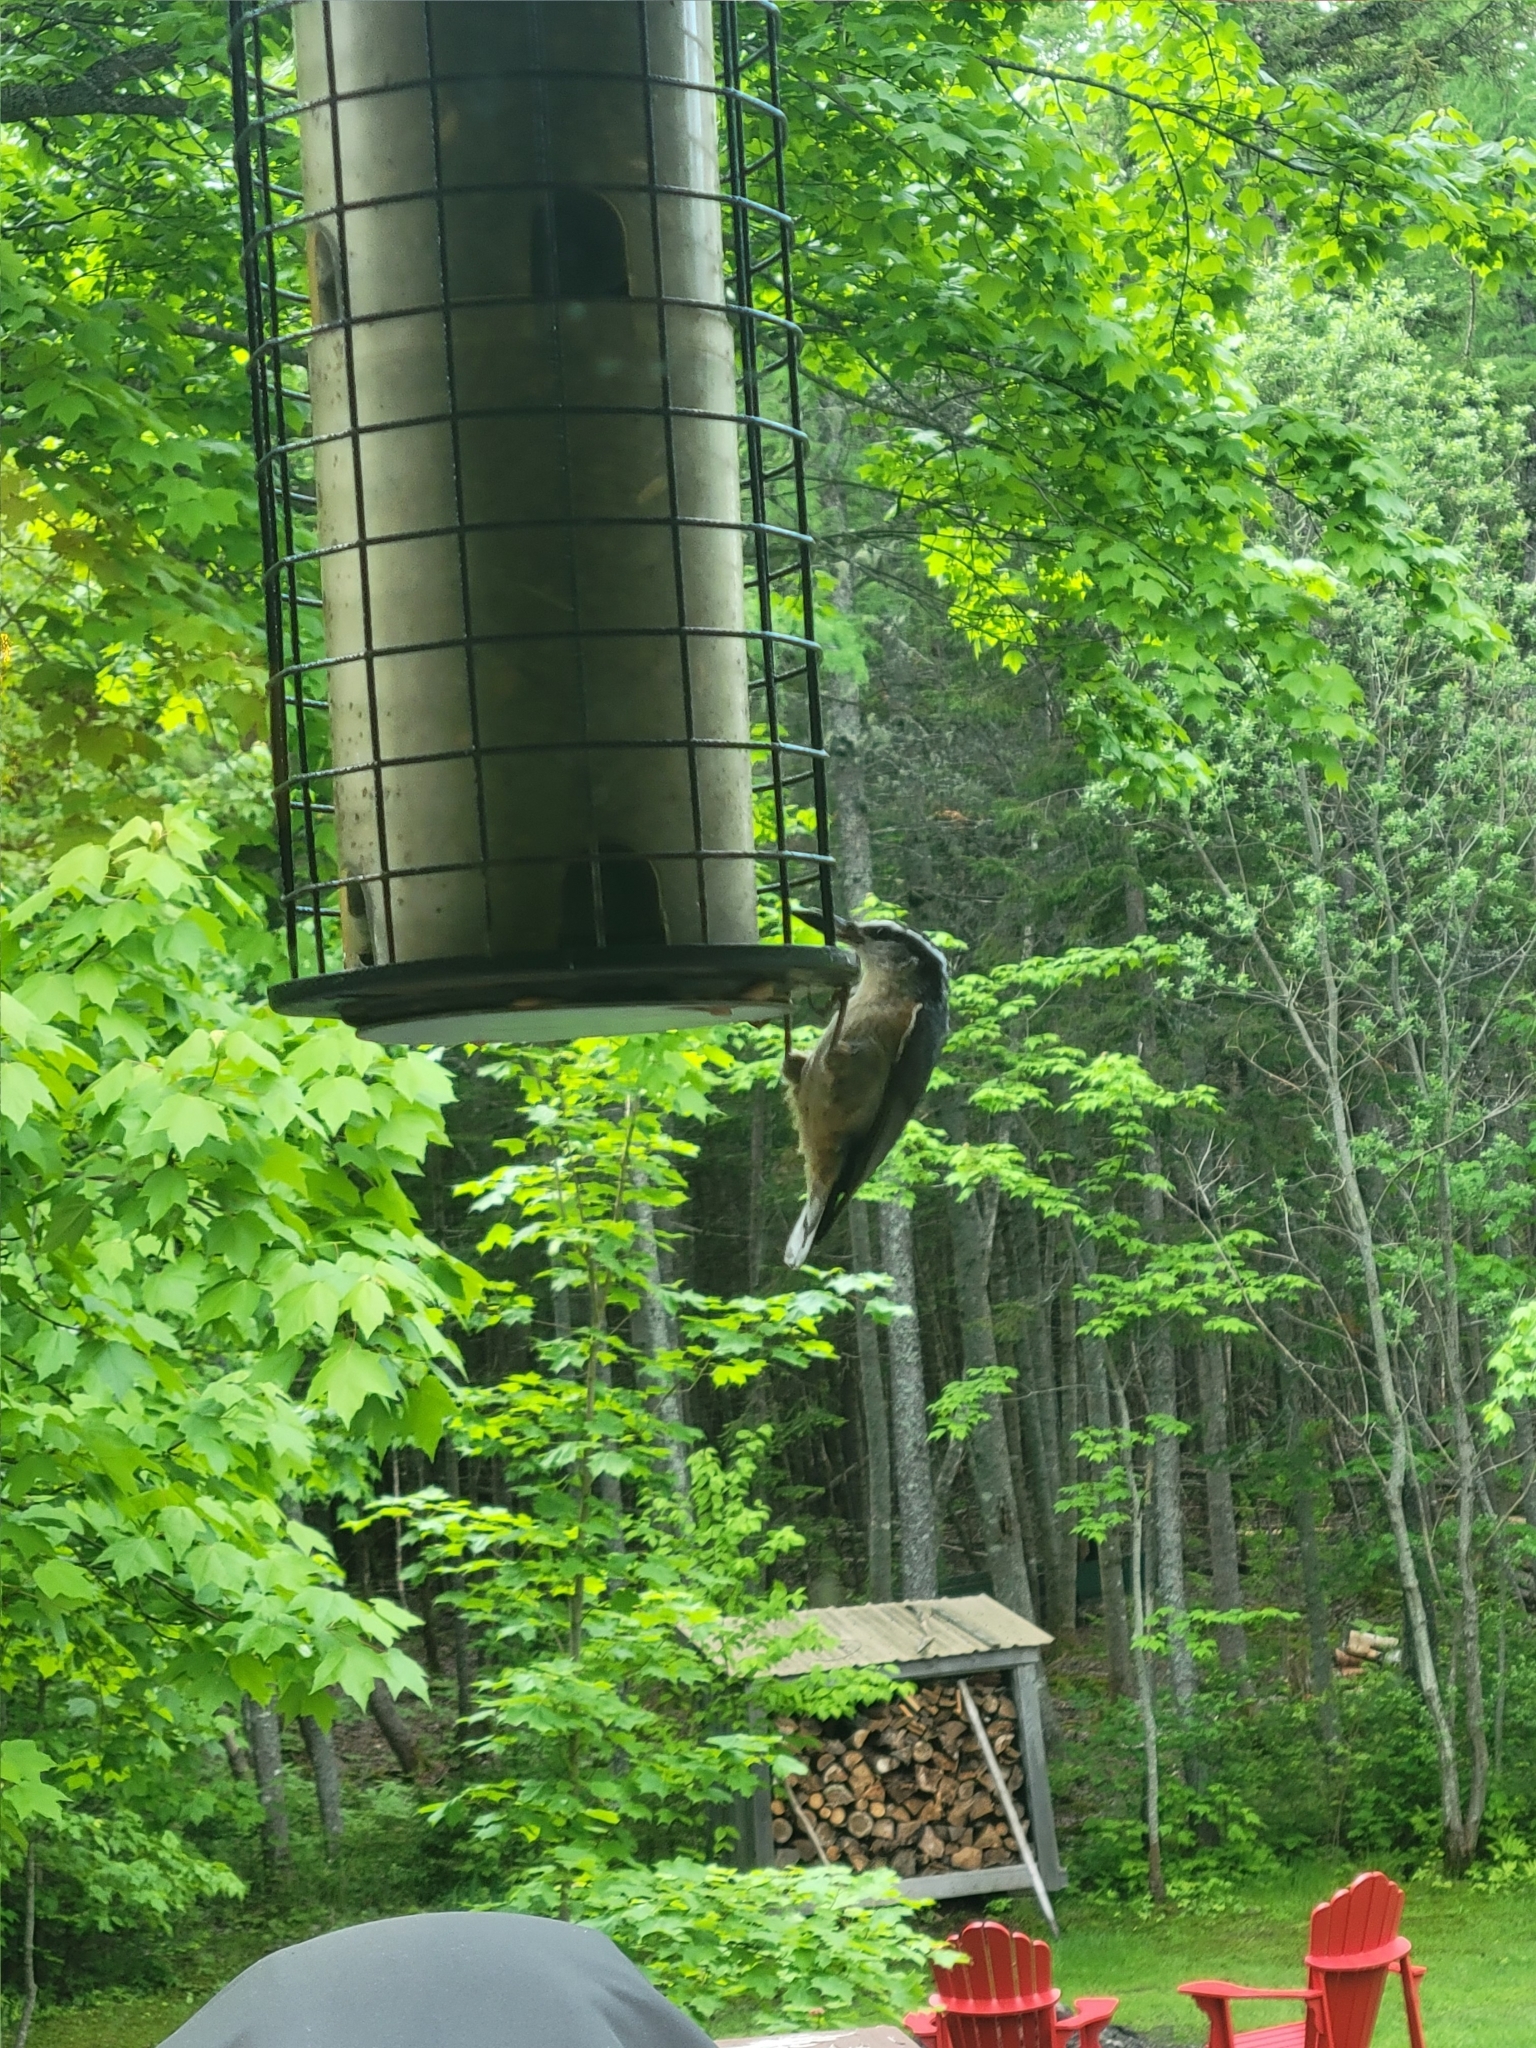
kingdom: Animalia
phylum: Chordata
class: Aves
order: Passeriformes
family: Sittidae
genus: Sitta
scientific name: Sitta canadensis
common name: Red-breasted nuthatch
